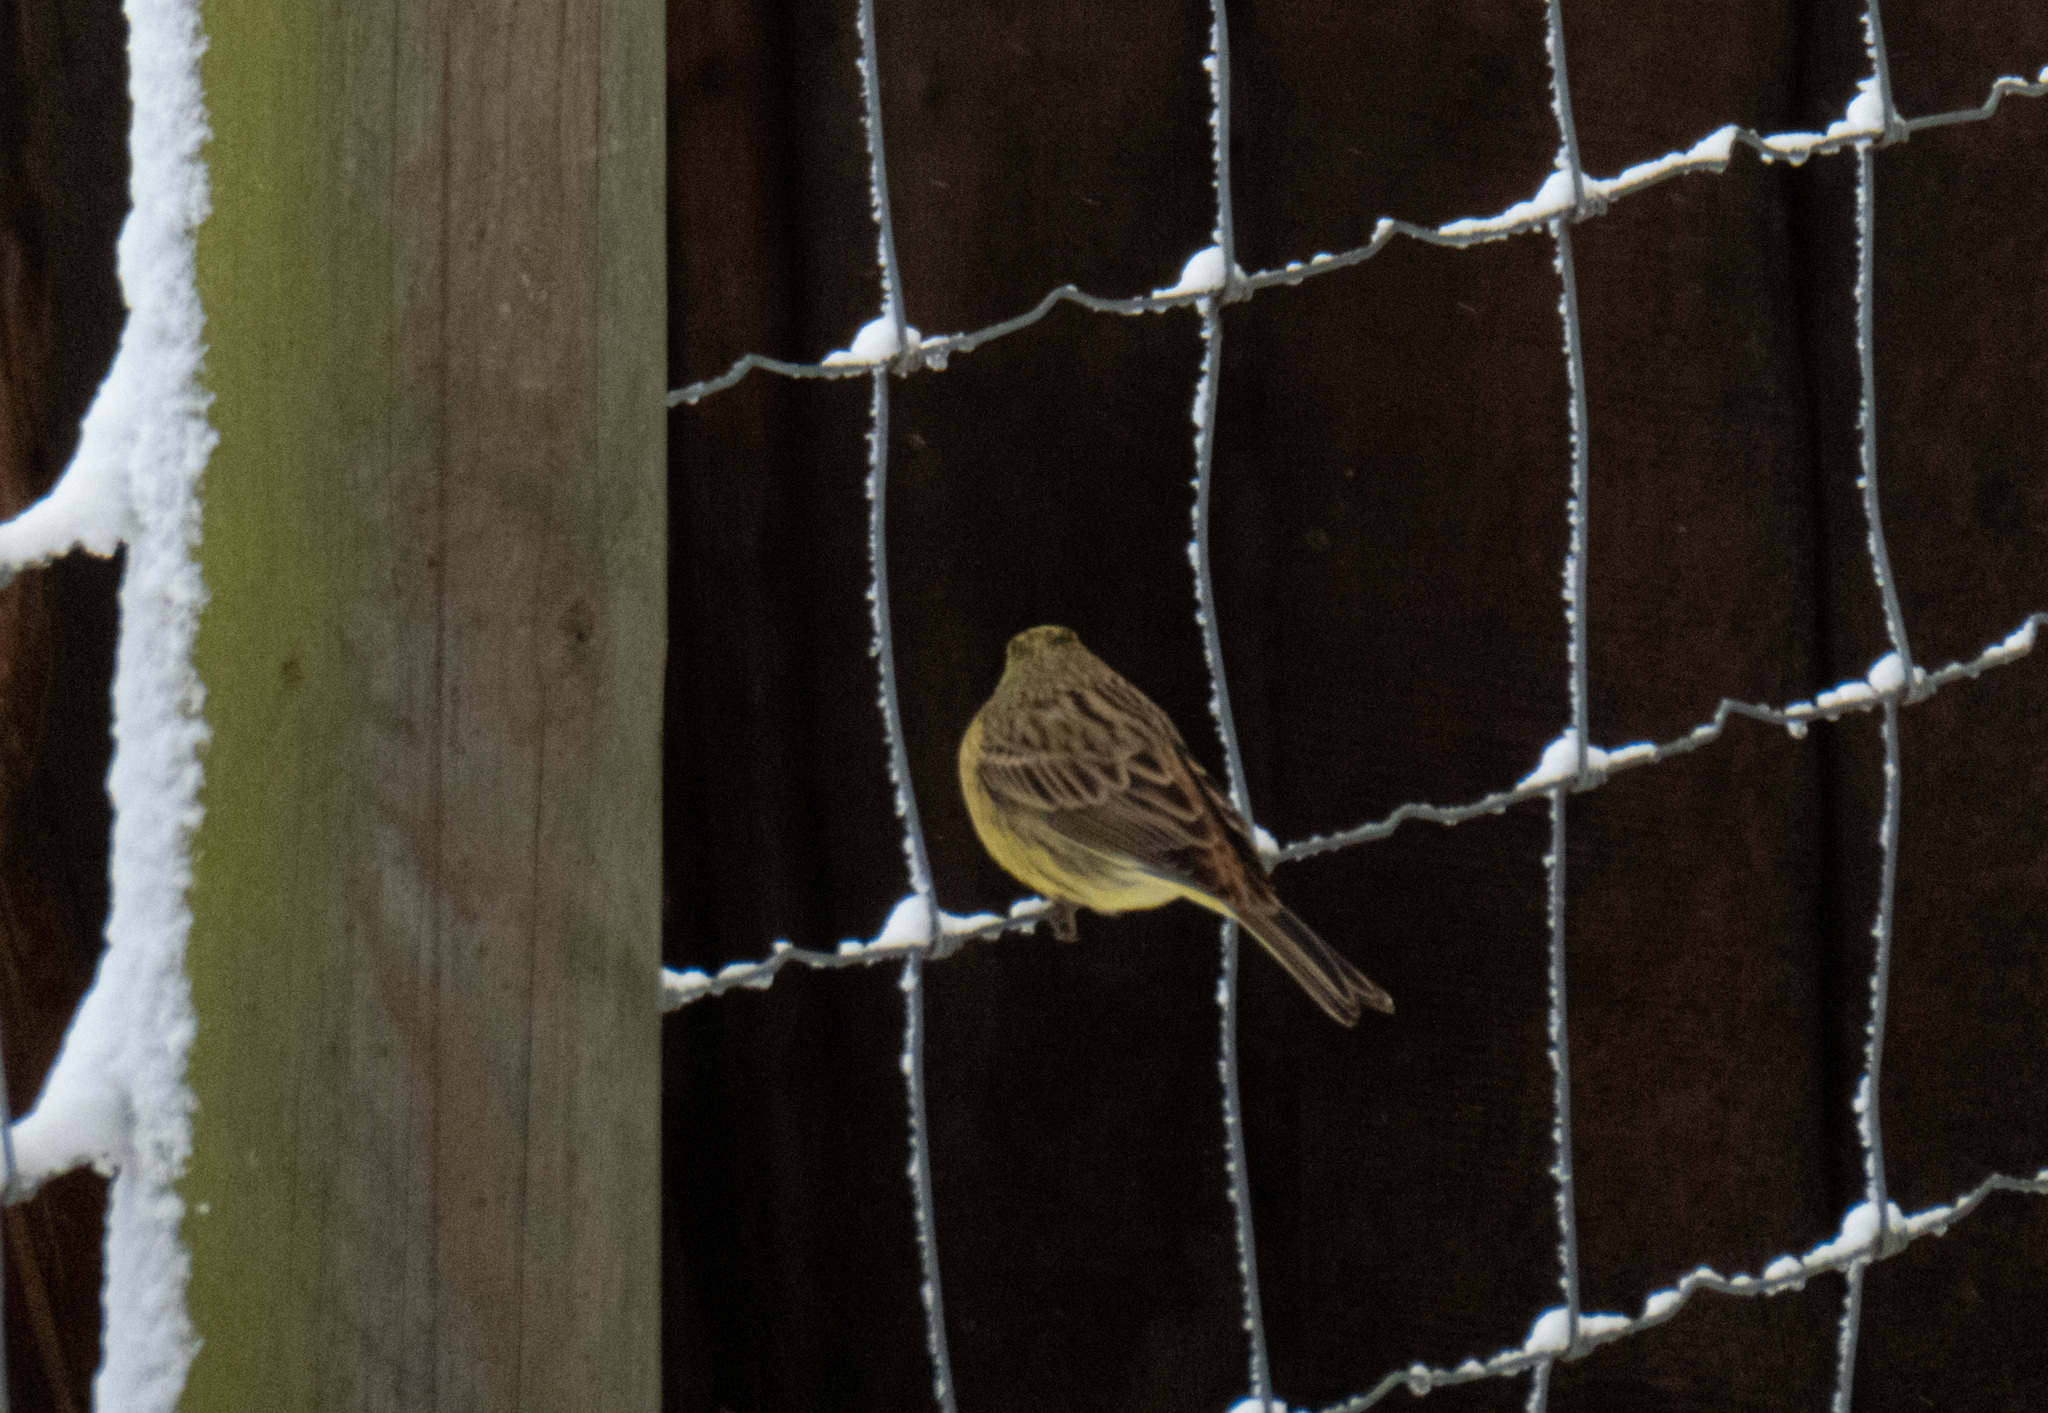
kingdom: Animalia
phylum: Chordata
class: Aves
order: Passeriformes
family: Emberizidae
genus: Emberiza
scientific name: Emberiza citrinella
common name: Yellowhammer
